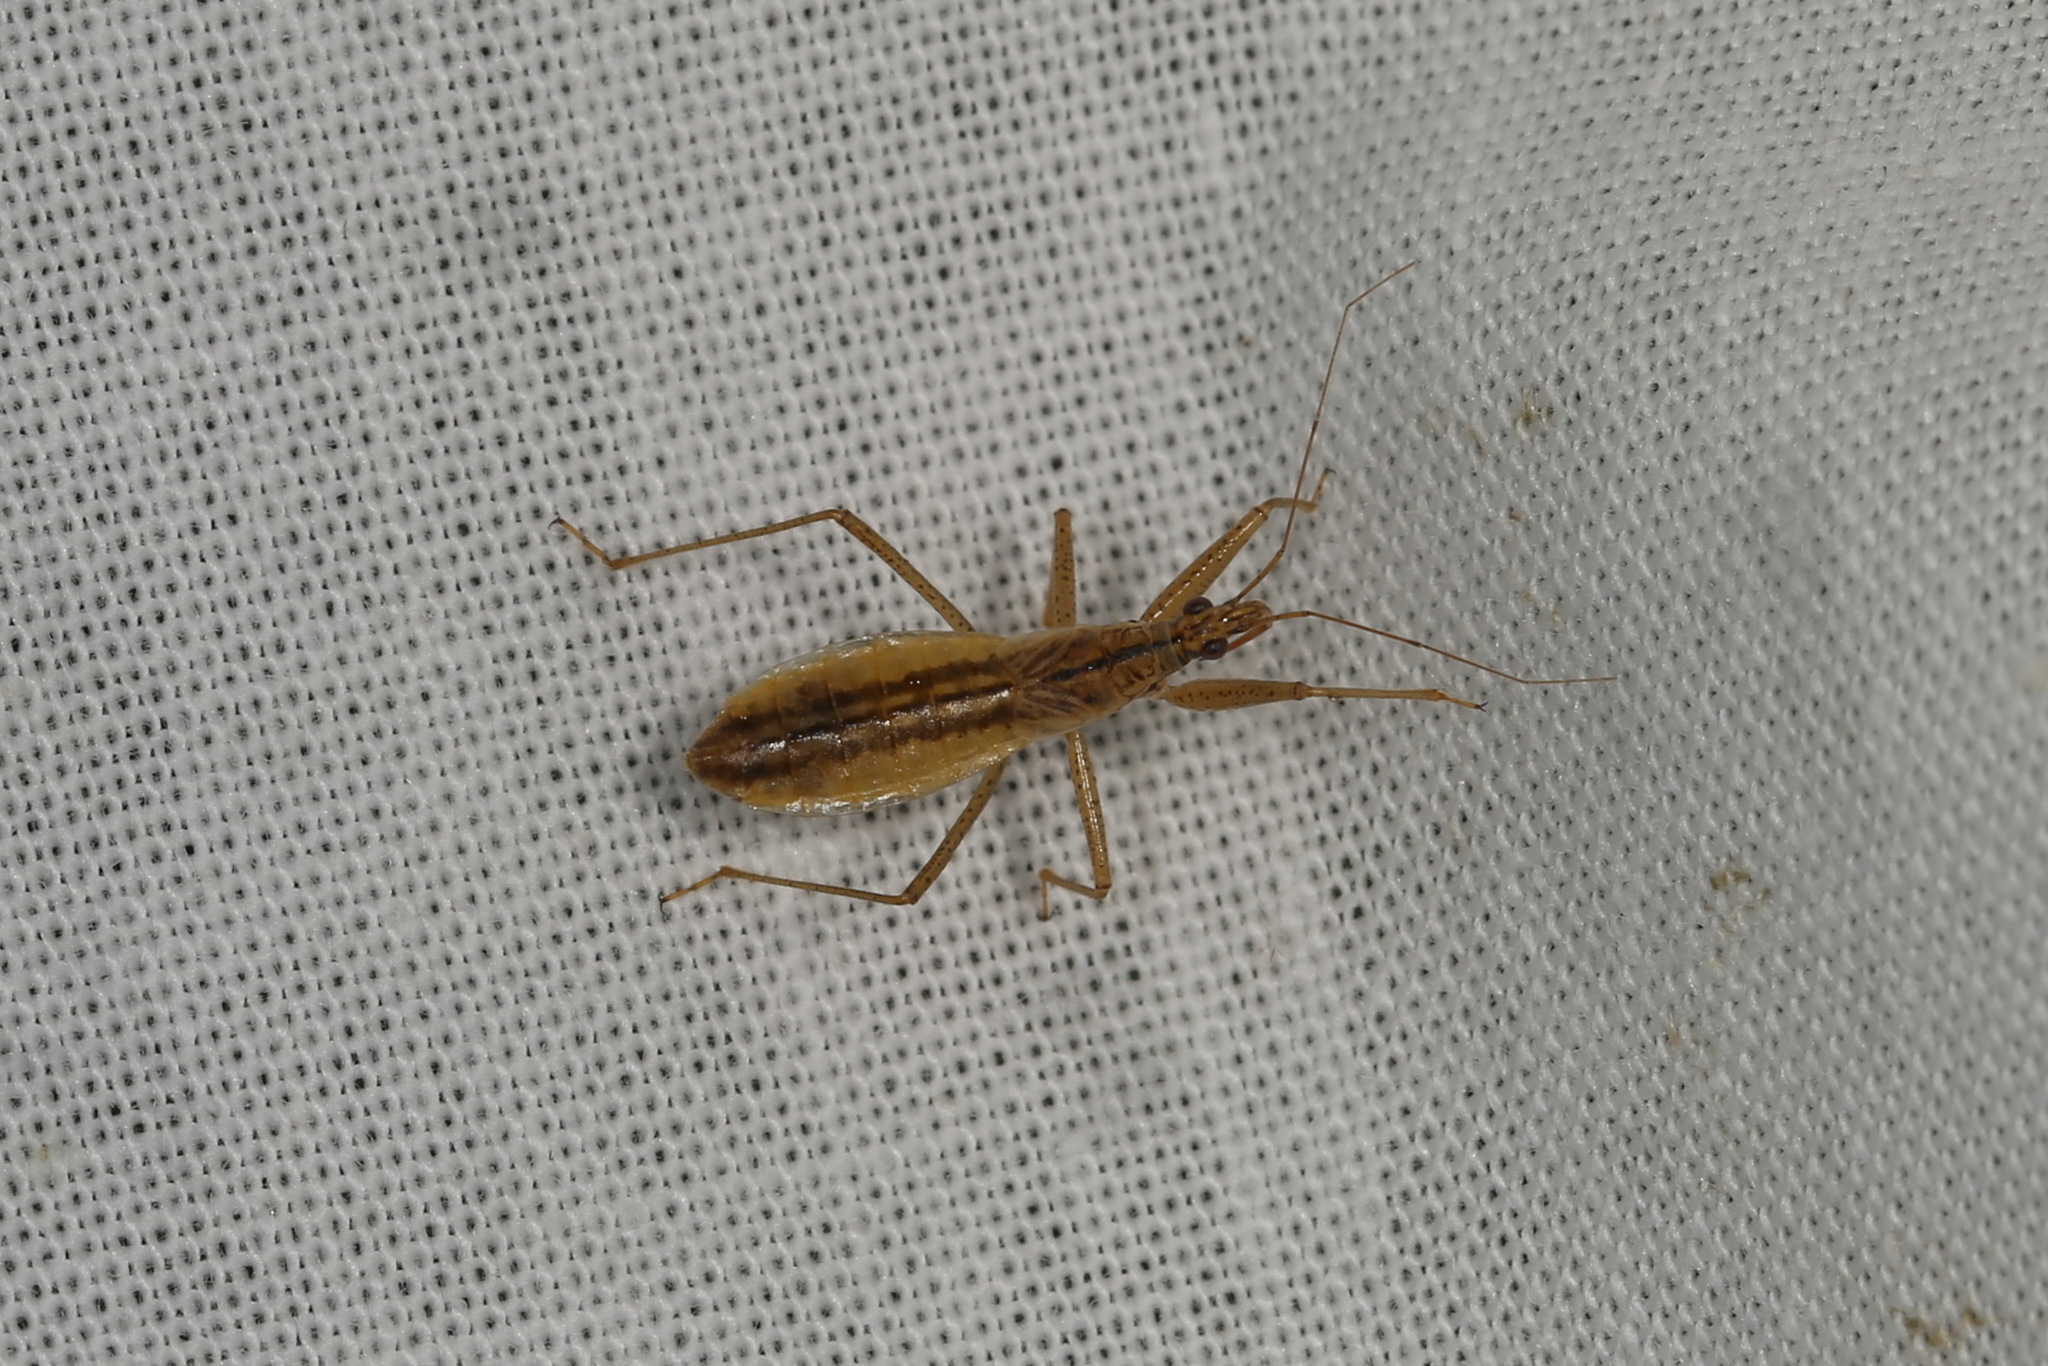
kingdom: Animalia
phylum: Arthropoda
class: Insecta
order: Hemiptera
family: Nabidae
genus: Nabis
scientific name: Nabis limbatus
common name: Marsh damselbug
